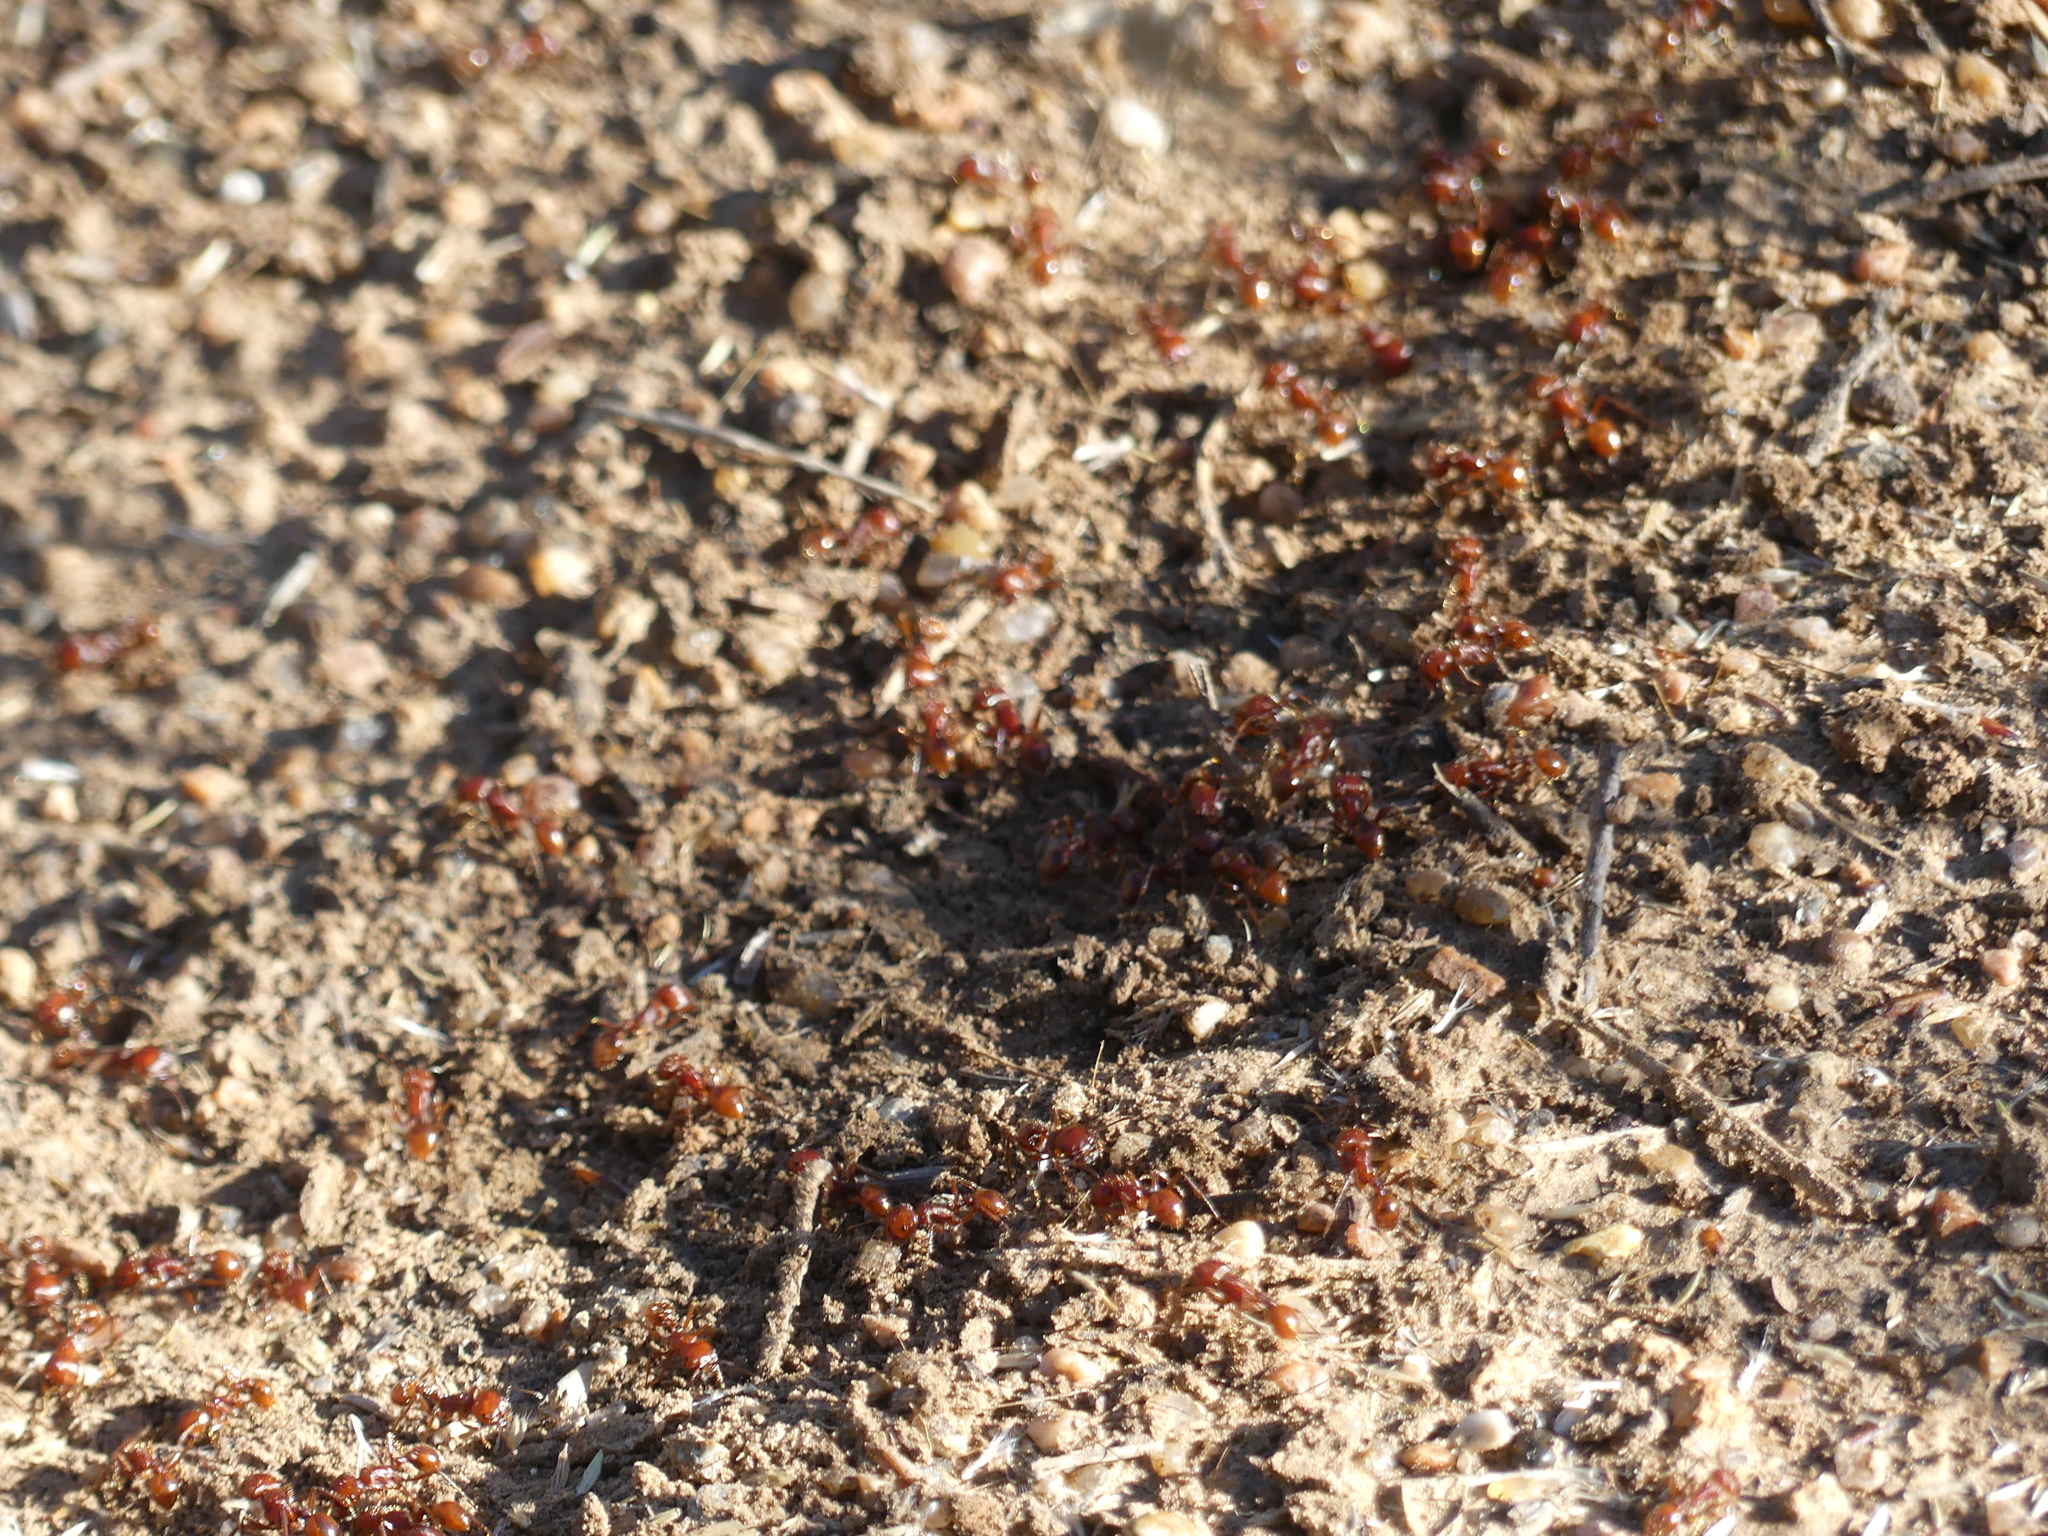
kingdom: Animalia
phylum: Arthropoda
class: Insecta
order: Hymenoptera
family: Formicidae
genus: Pogonomyrmex
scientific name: Pogonomyrmex barbatus
